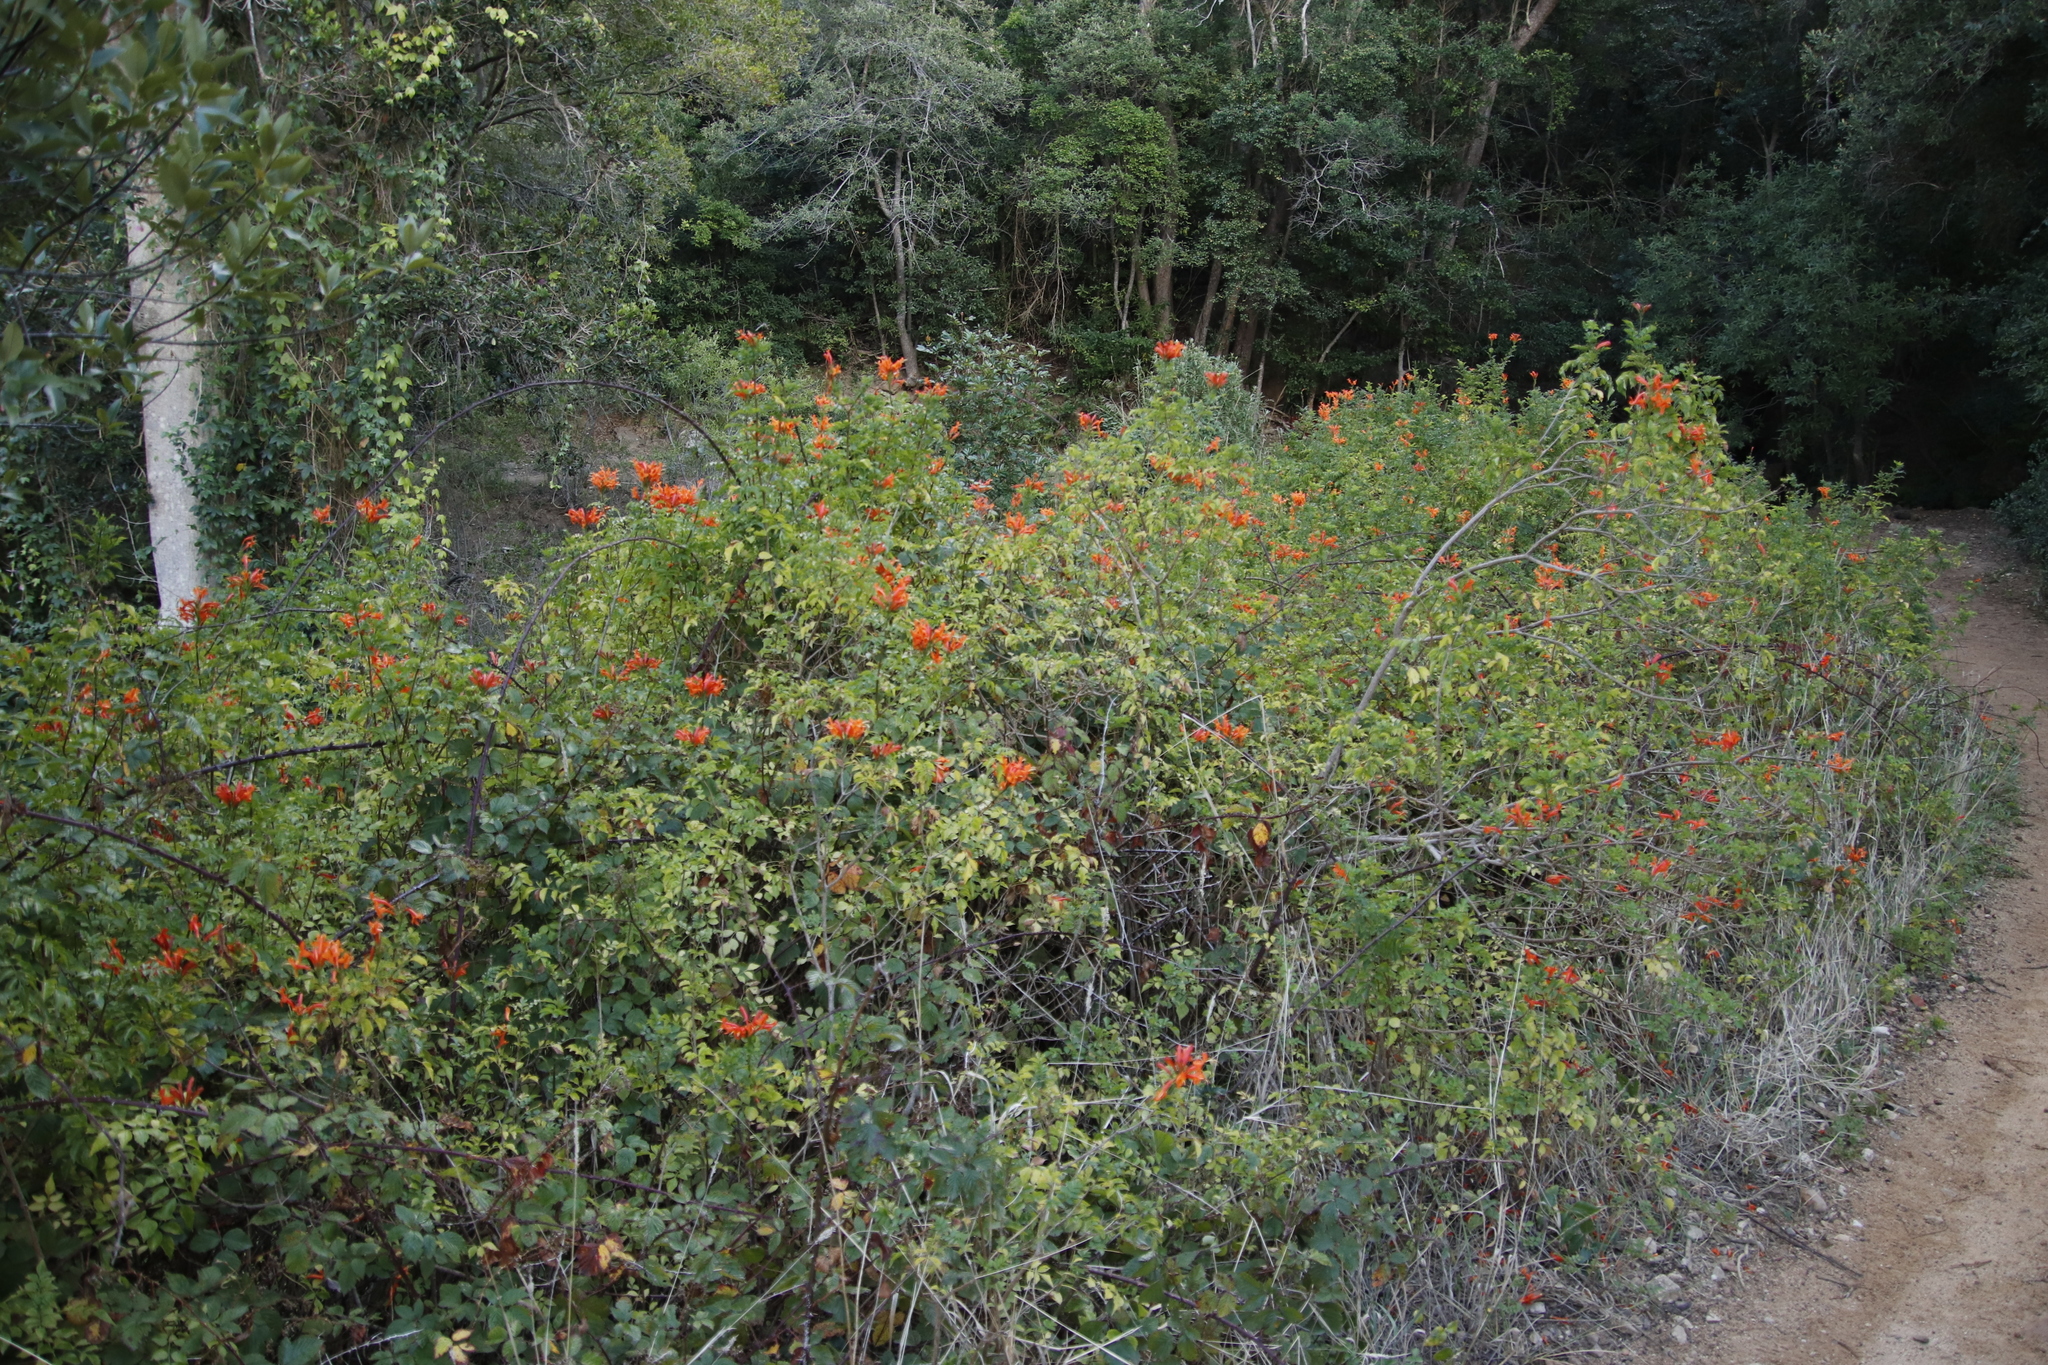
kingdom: Plantae
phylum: Tracheophyta
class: Magnoliopsida
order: Lamiales
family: Bignoniaceae
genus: Tecomaria
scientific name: Tecomaria capensis
